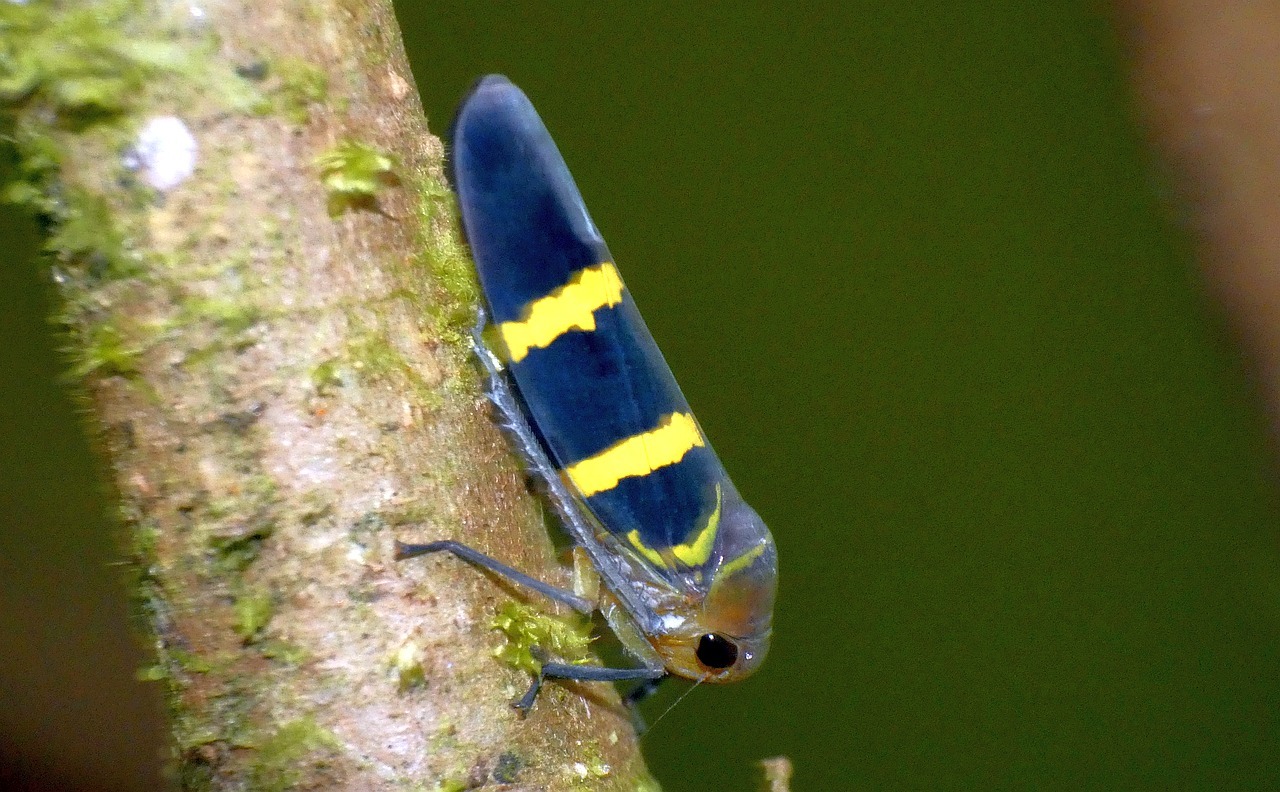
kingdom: Animalia
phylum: Arthropoda
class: Insecta
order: Hemiptera
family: Cicadellidae
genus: Amblyscarta
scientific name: Amblyscarta inca
